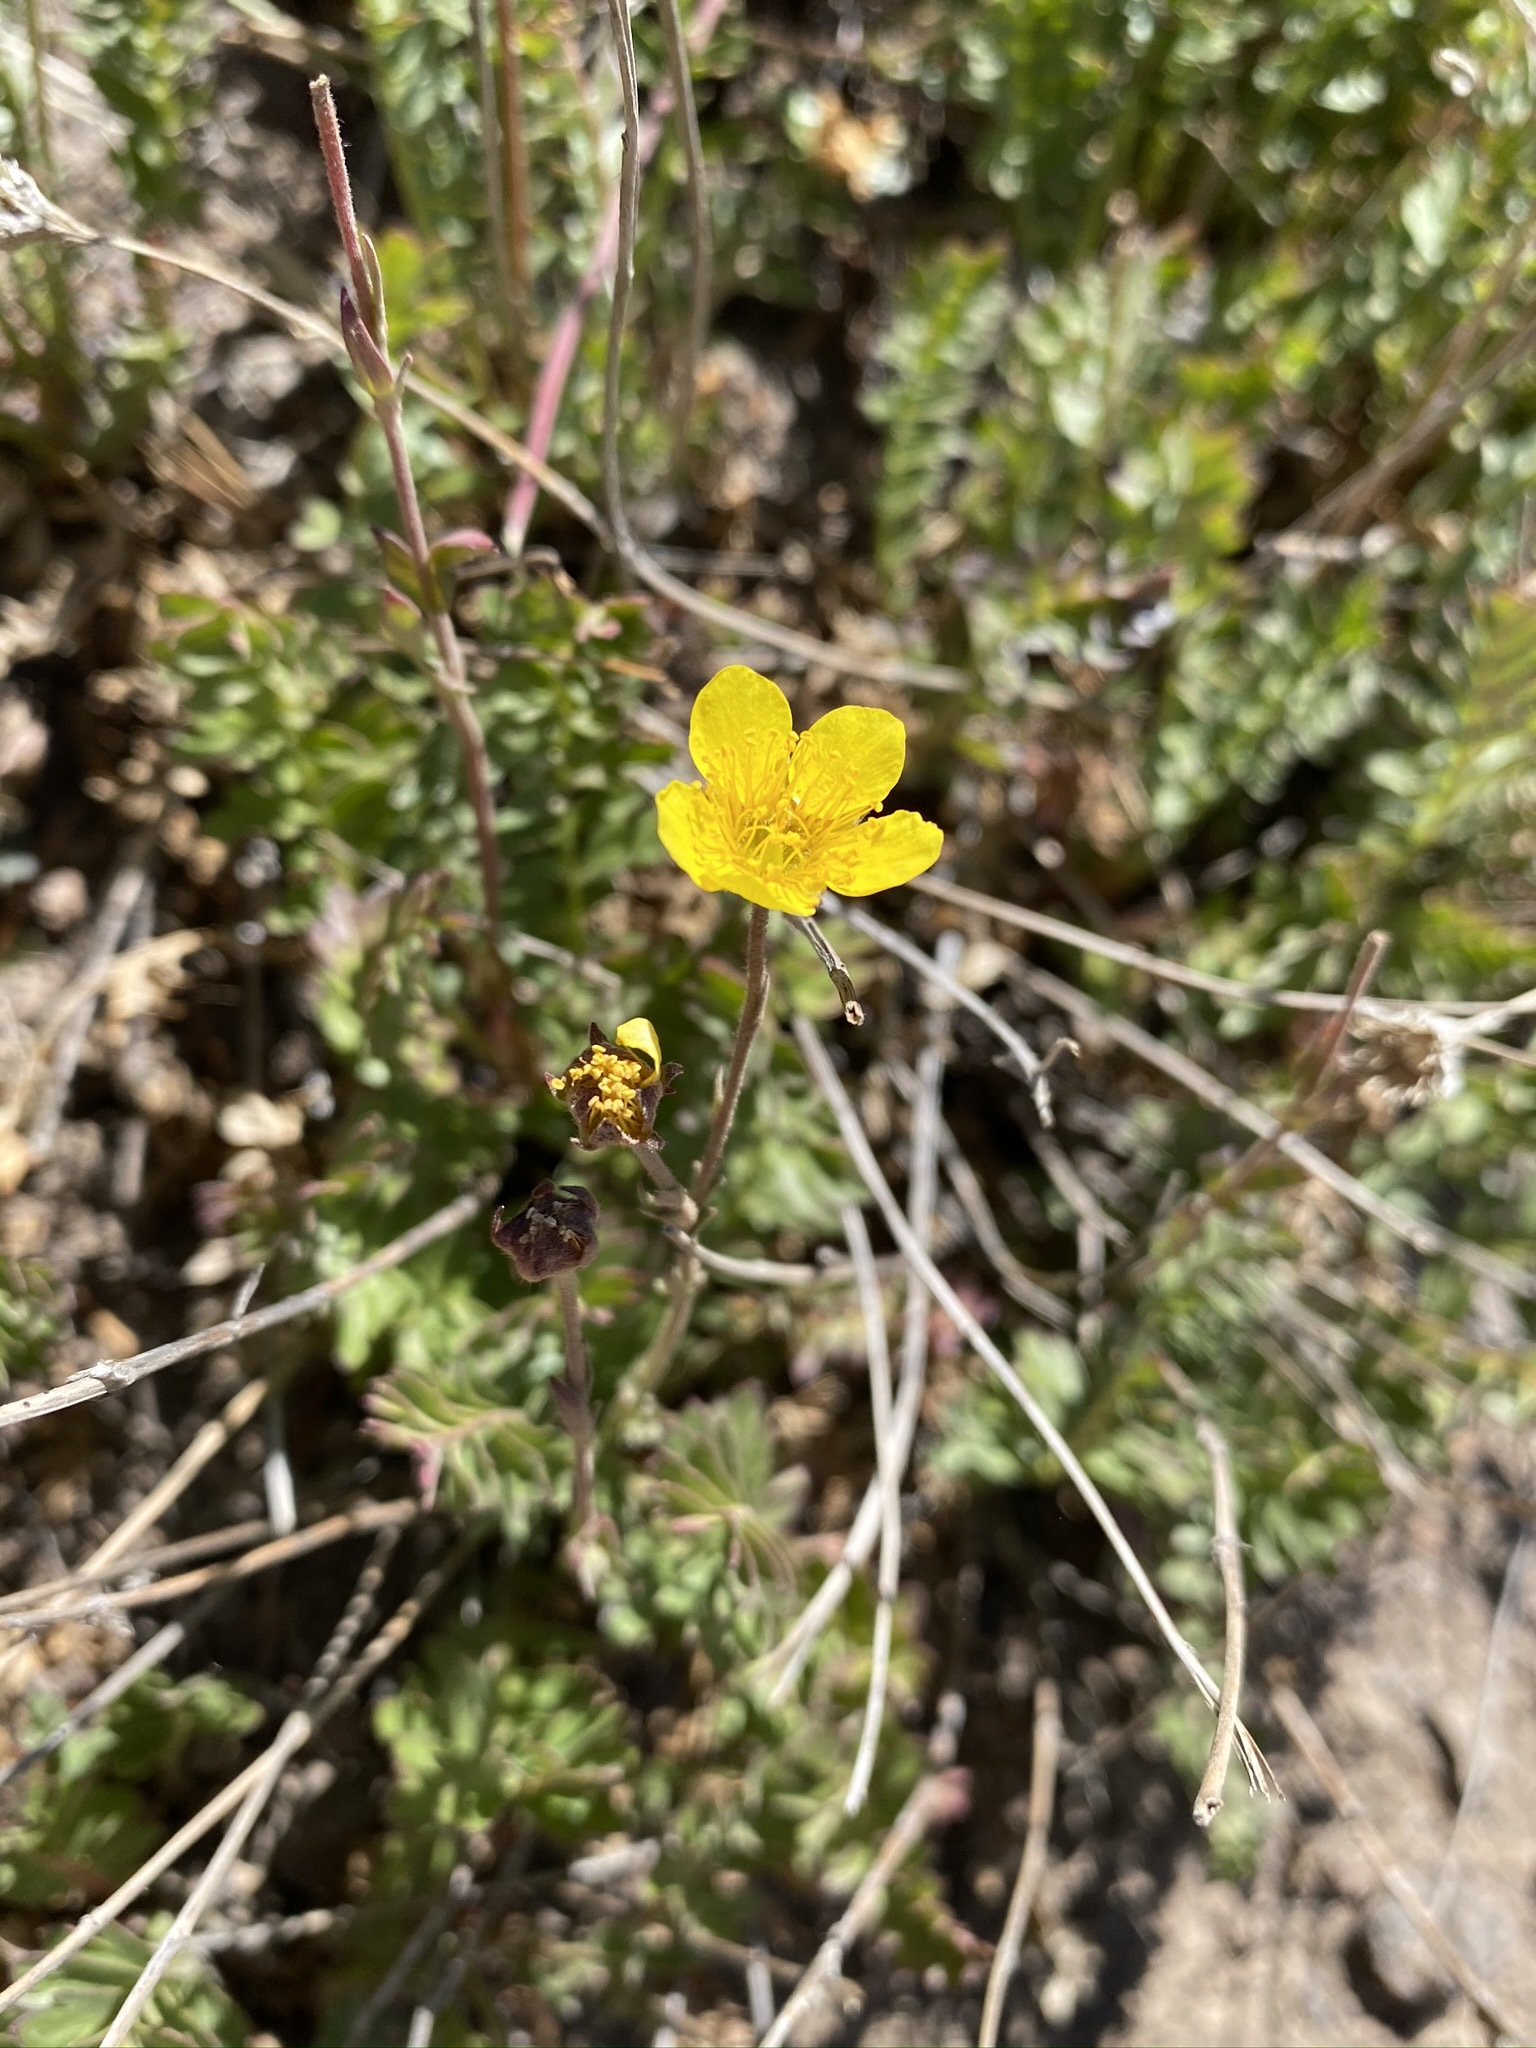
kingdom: Plantae
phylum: Tracheophyta
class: Magnoliopsida
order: Rosales
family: Rosaceae
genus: Geum
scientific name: Geum rossii
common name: Alpine avens
